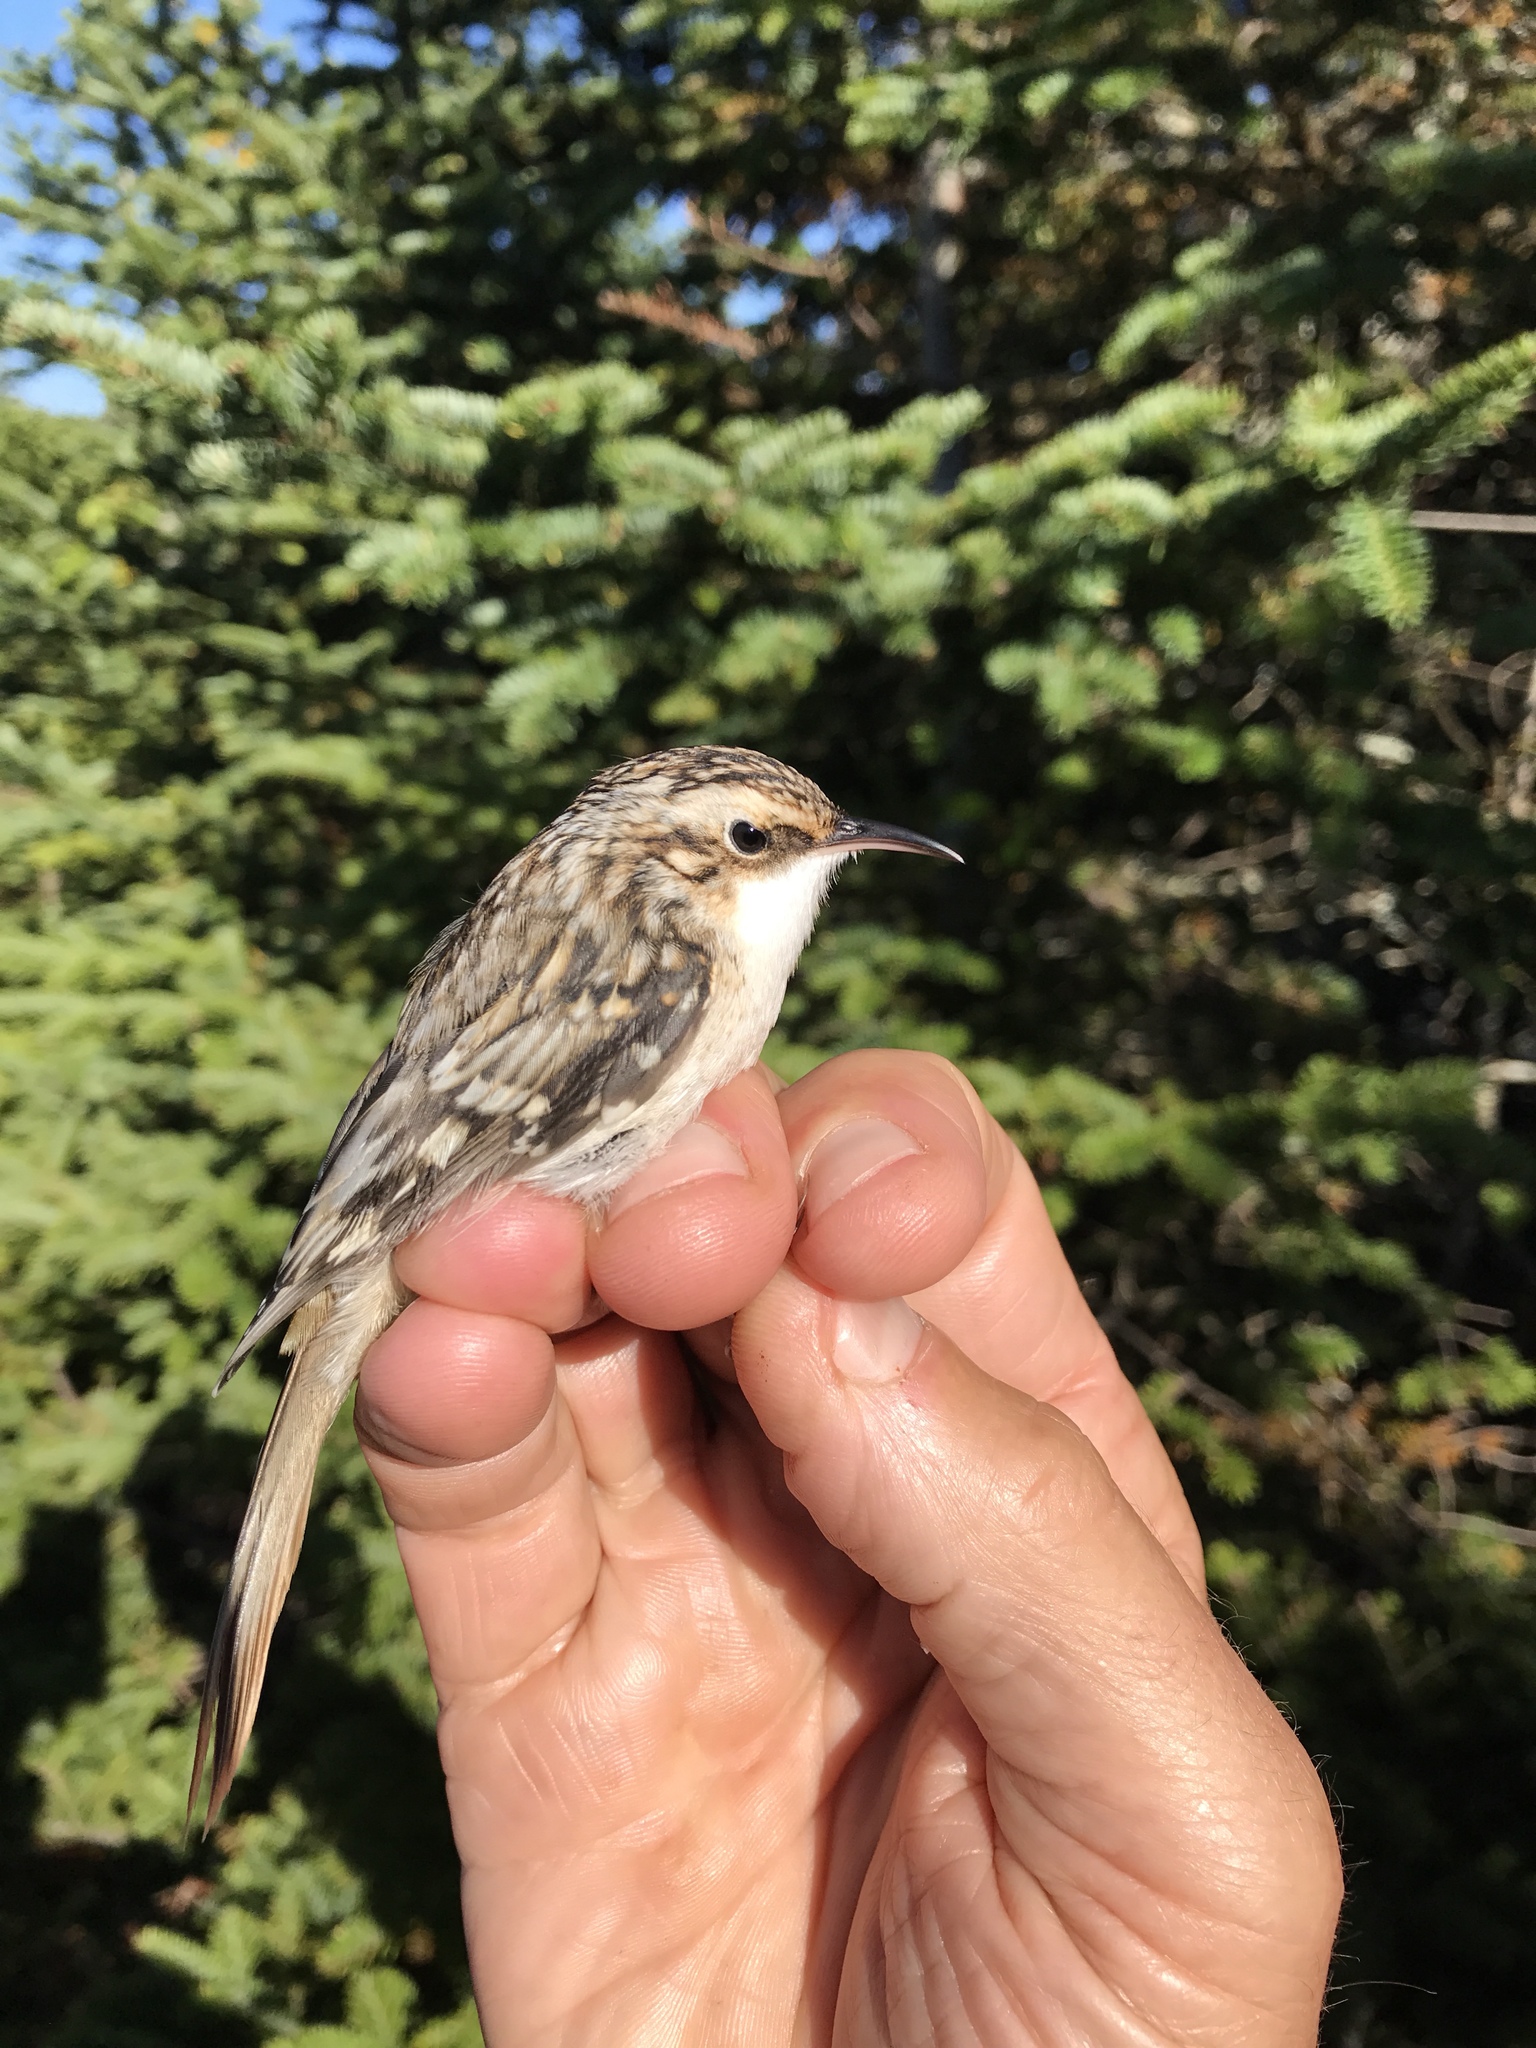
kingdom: Animalia
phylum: Chordata
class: Aves
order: Passeriformes
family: Certhiidae
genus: Certhia
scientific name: Certhia americana
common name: Brown creeper
